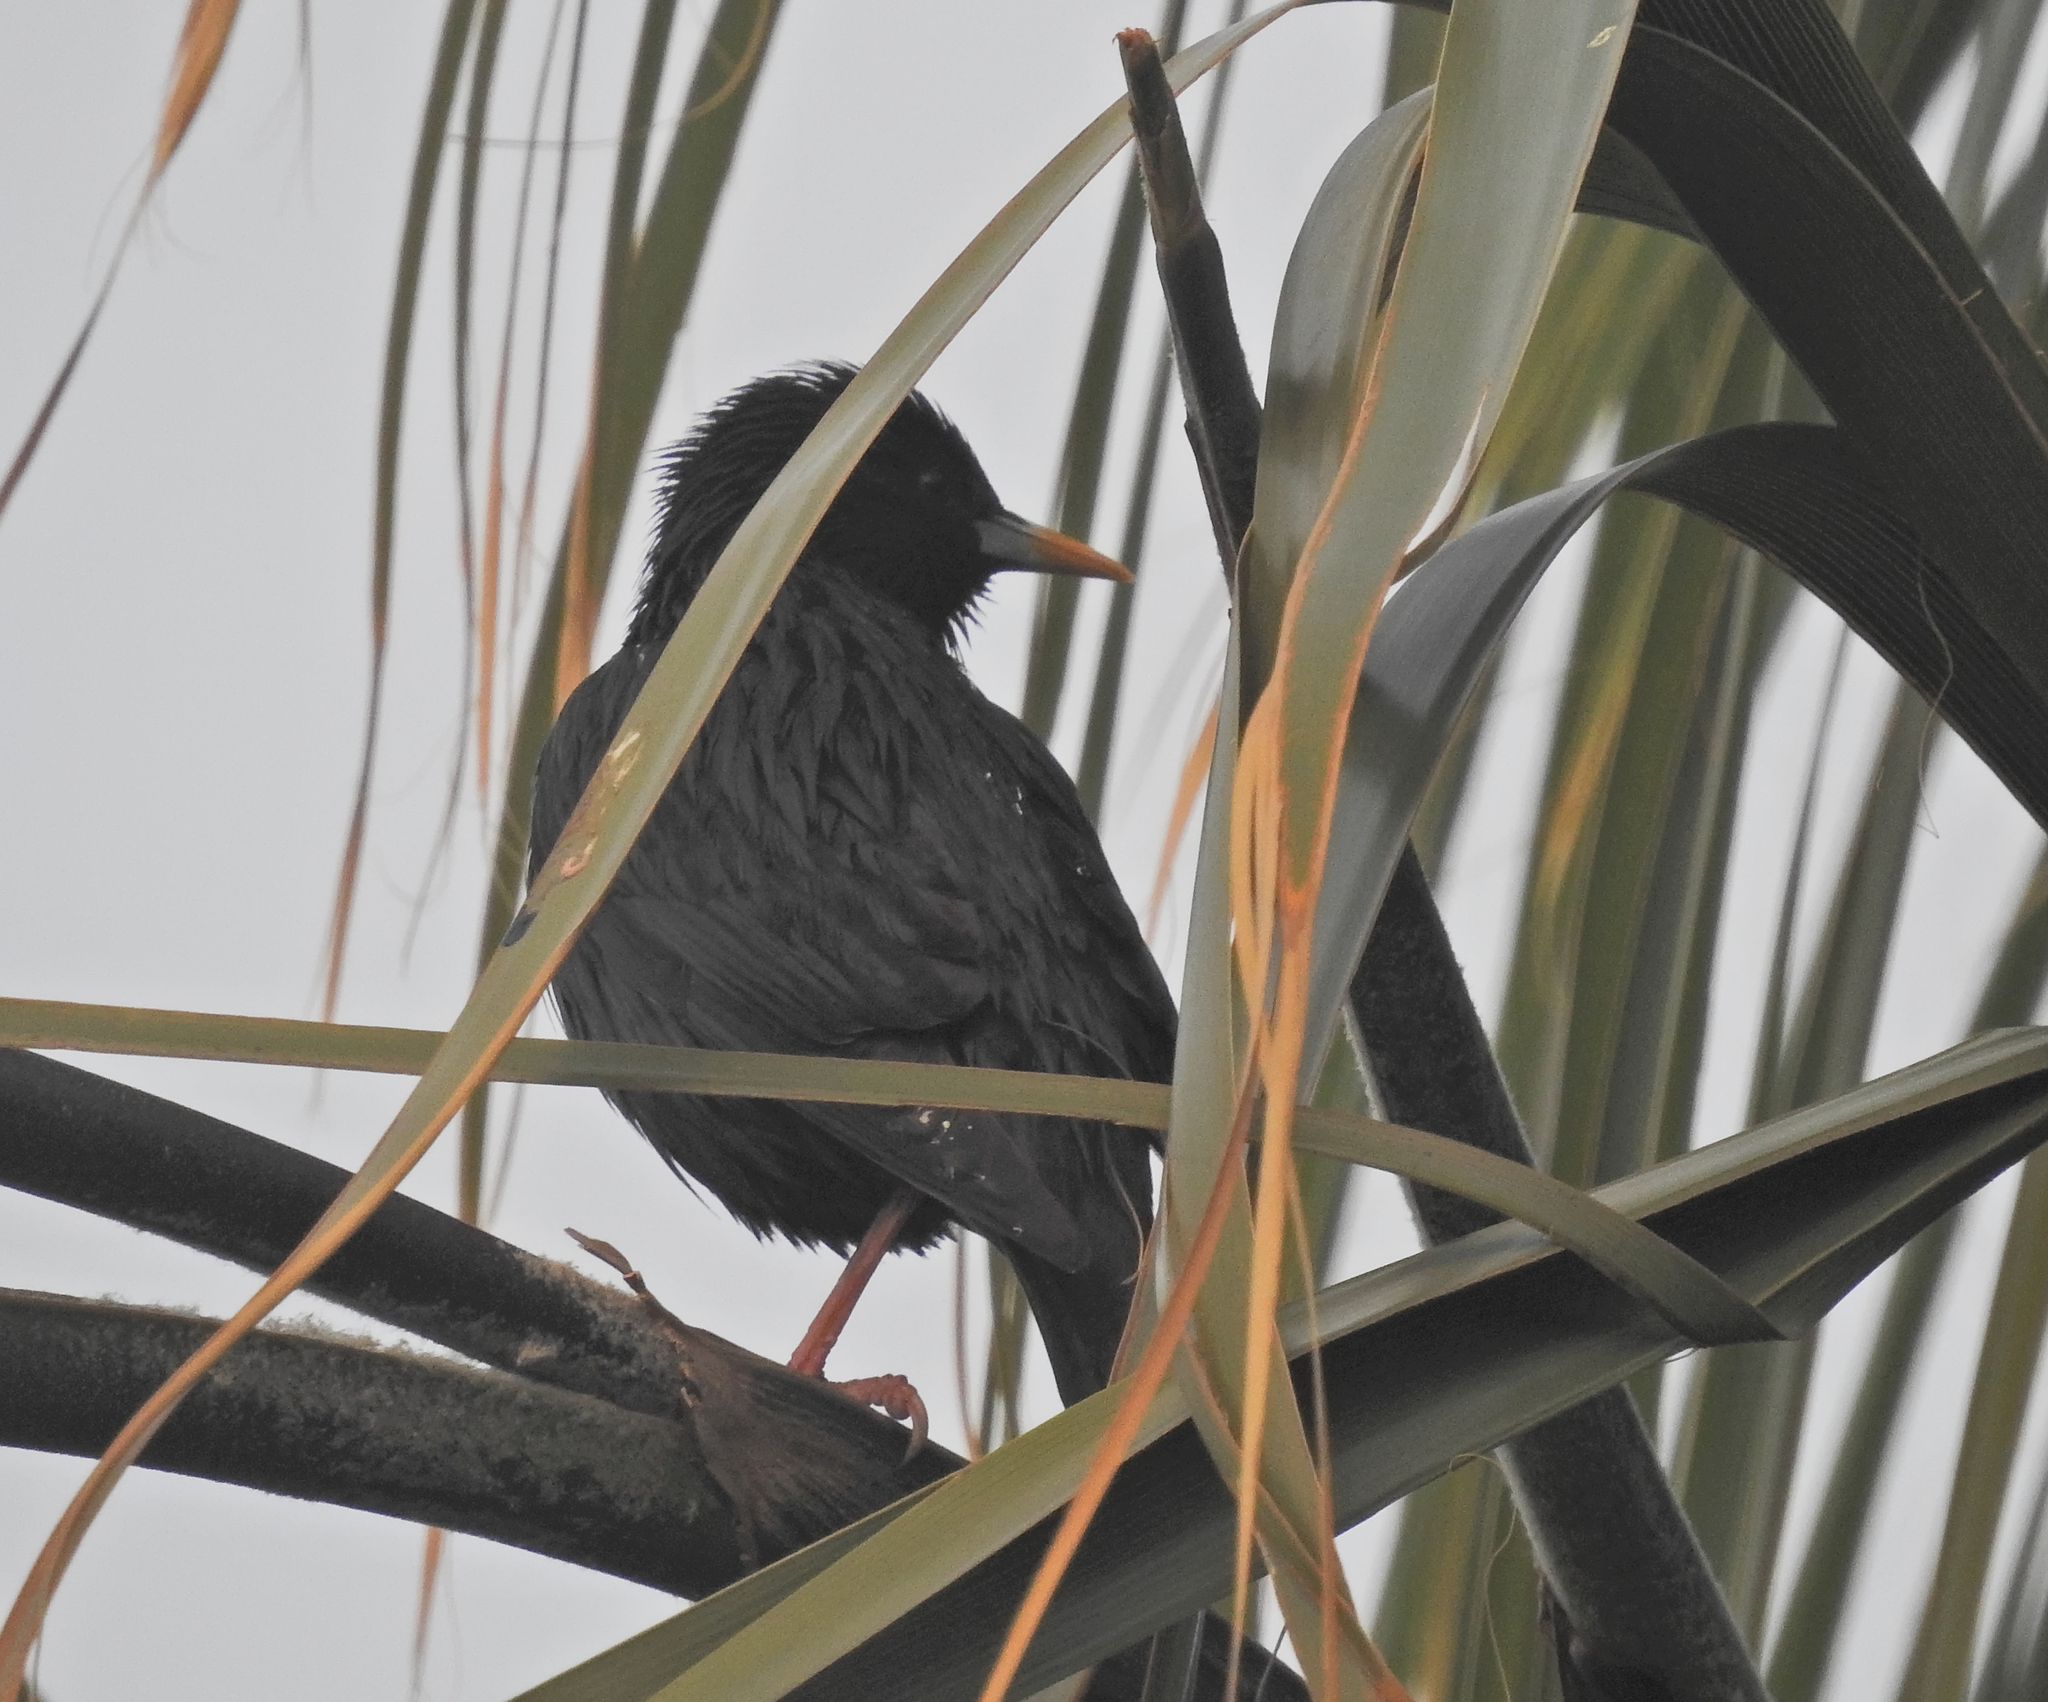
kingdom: Animalia
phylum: Chordata
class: Aves
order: Passeriformes
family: Sturnidae
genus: Sturnus
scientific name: Sturnus unicolor
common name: Spotless starling
